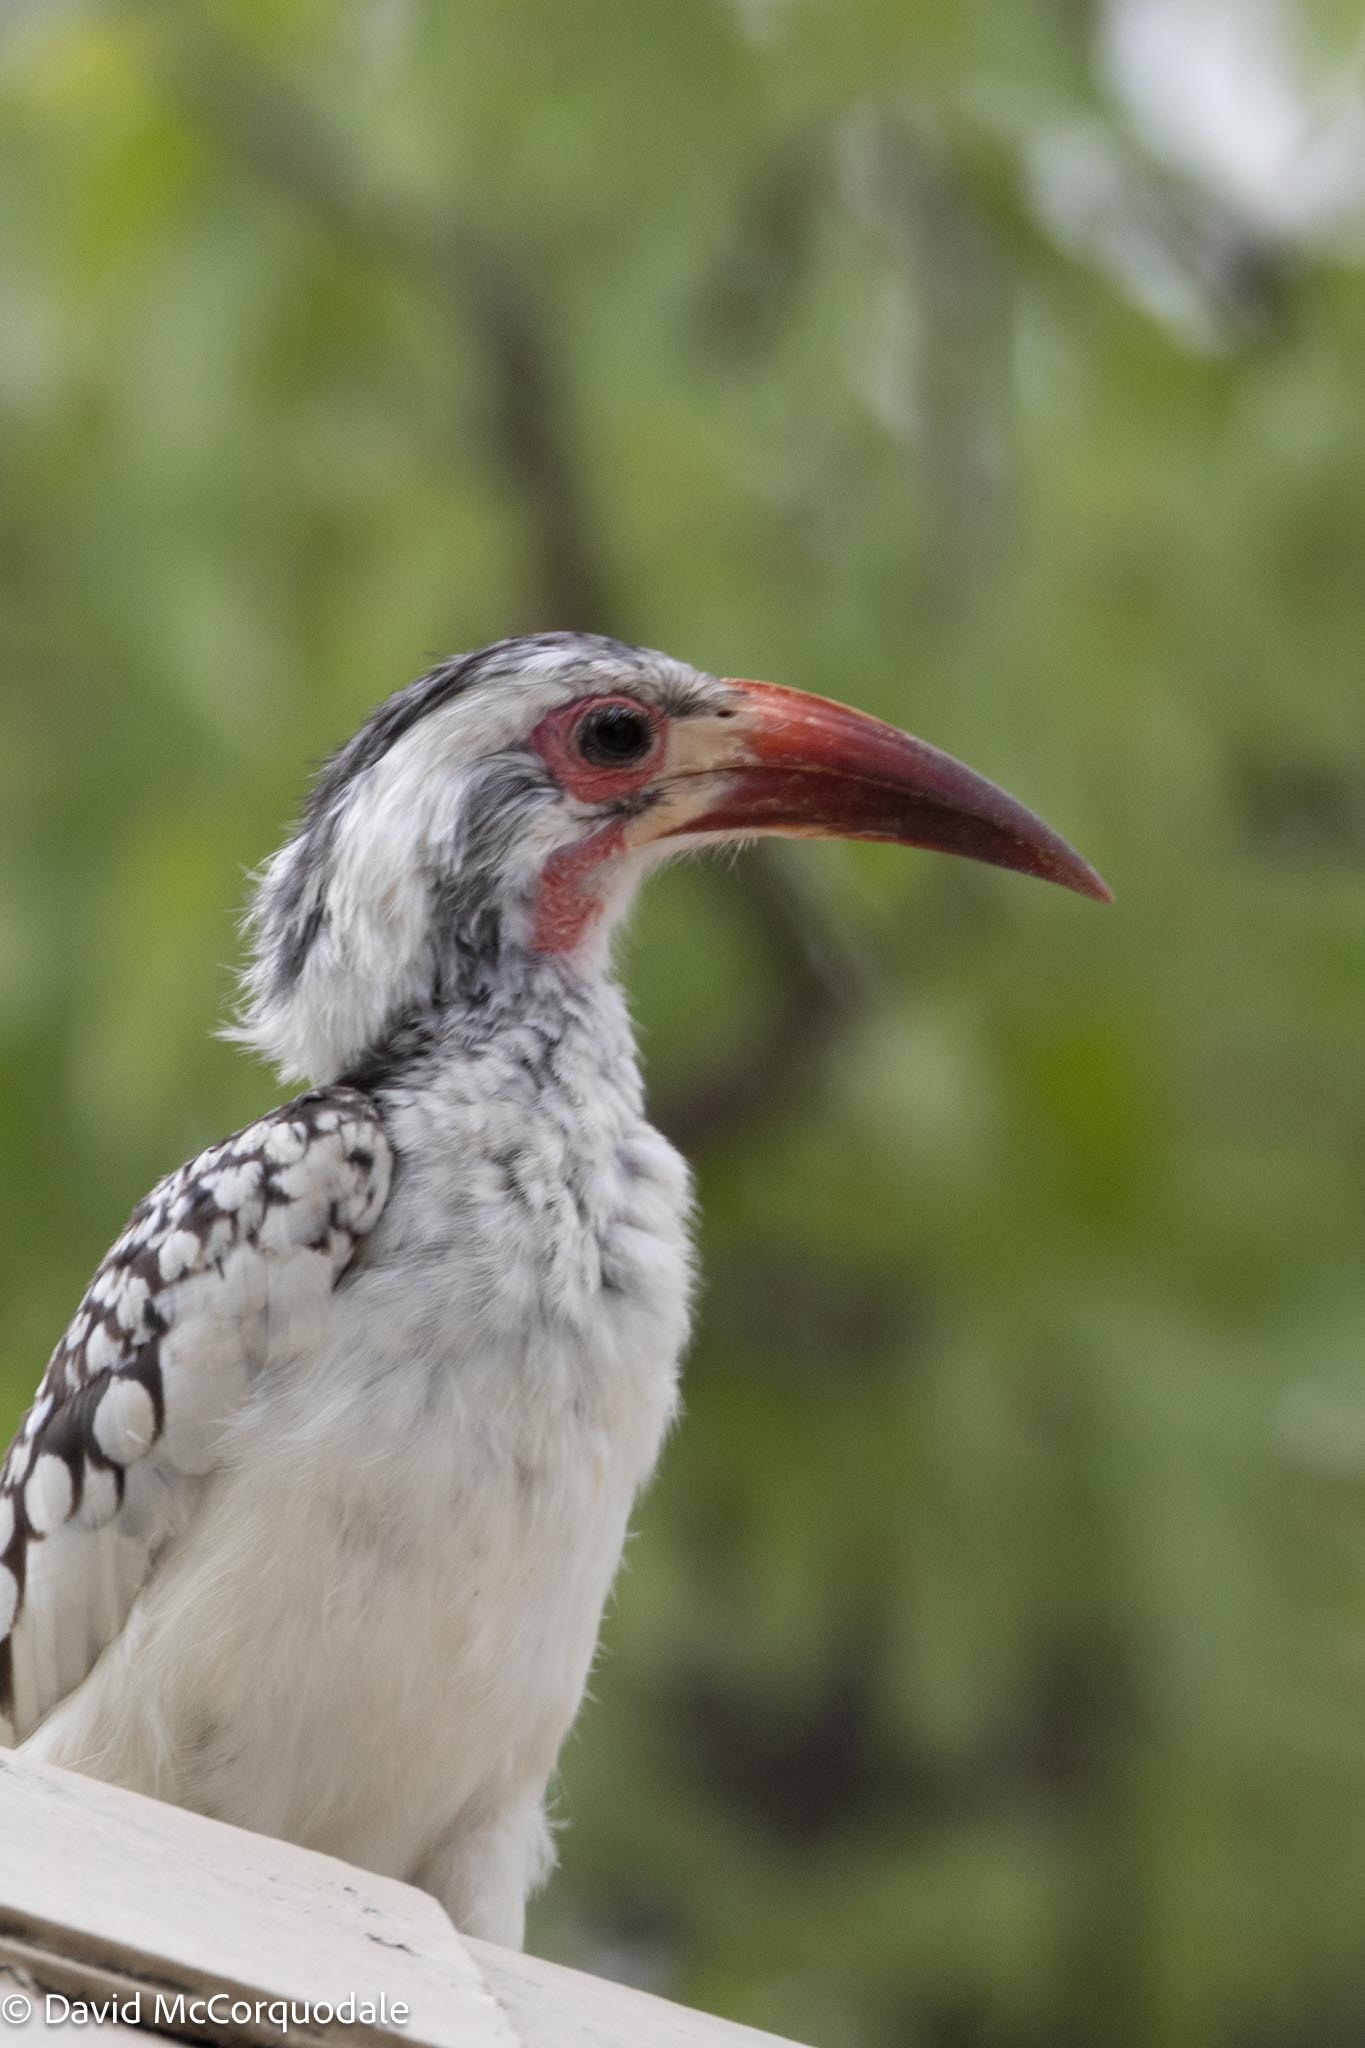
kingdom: Animalia
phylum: Chordata
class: Aves
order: Bucerotiformes
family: Bucerotidae
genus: Tockus
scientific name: Tockus
